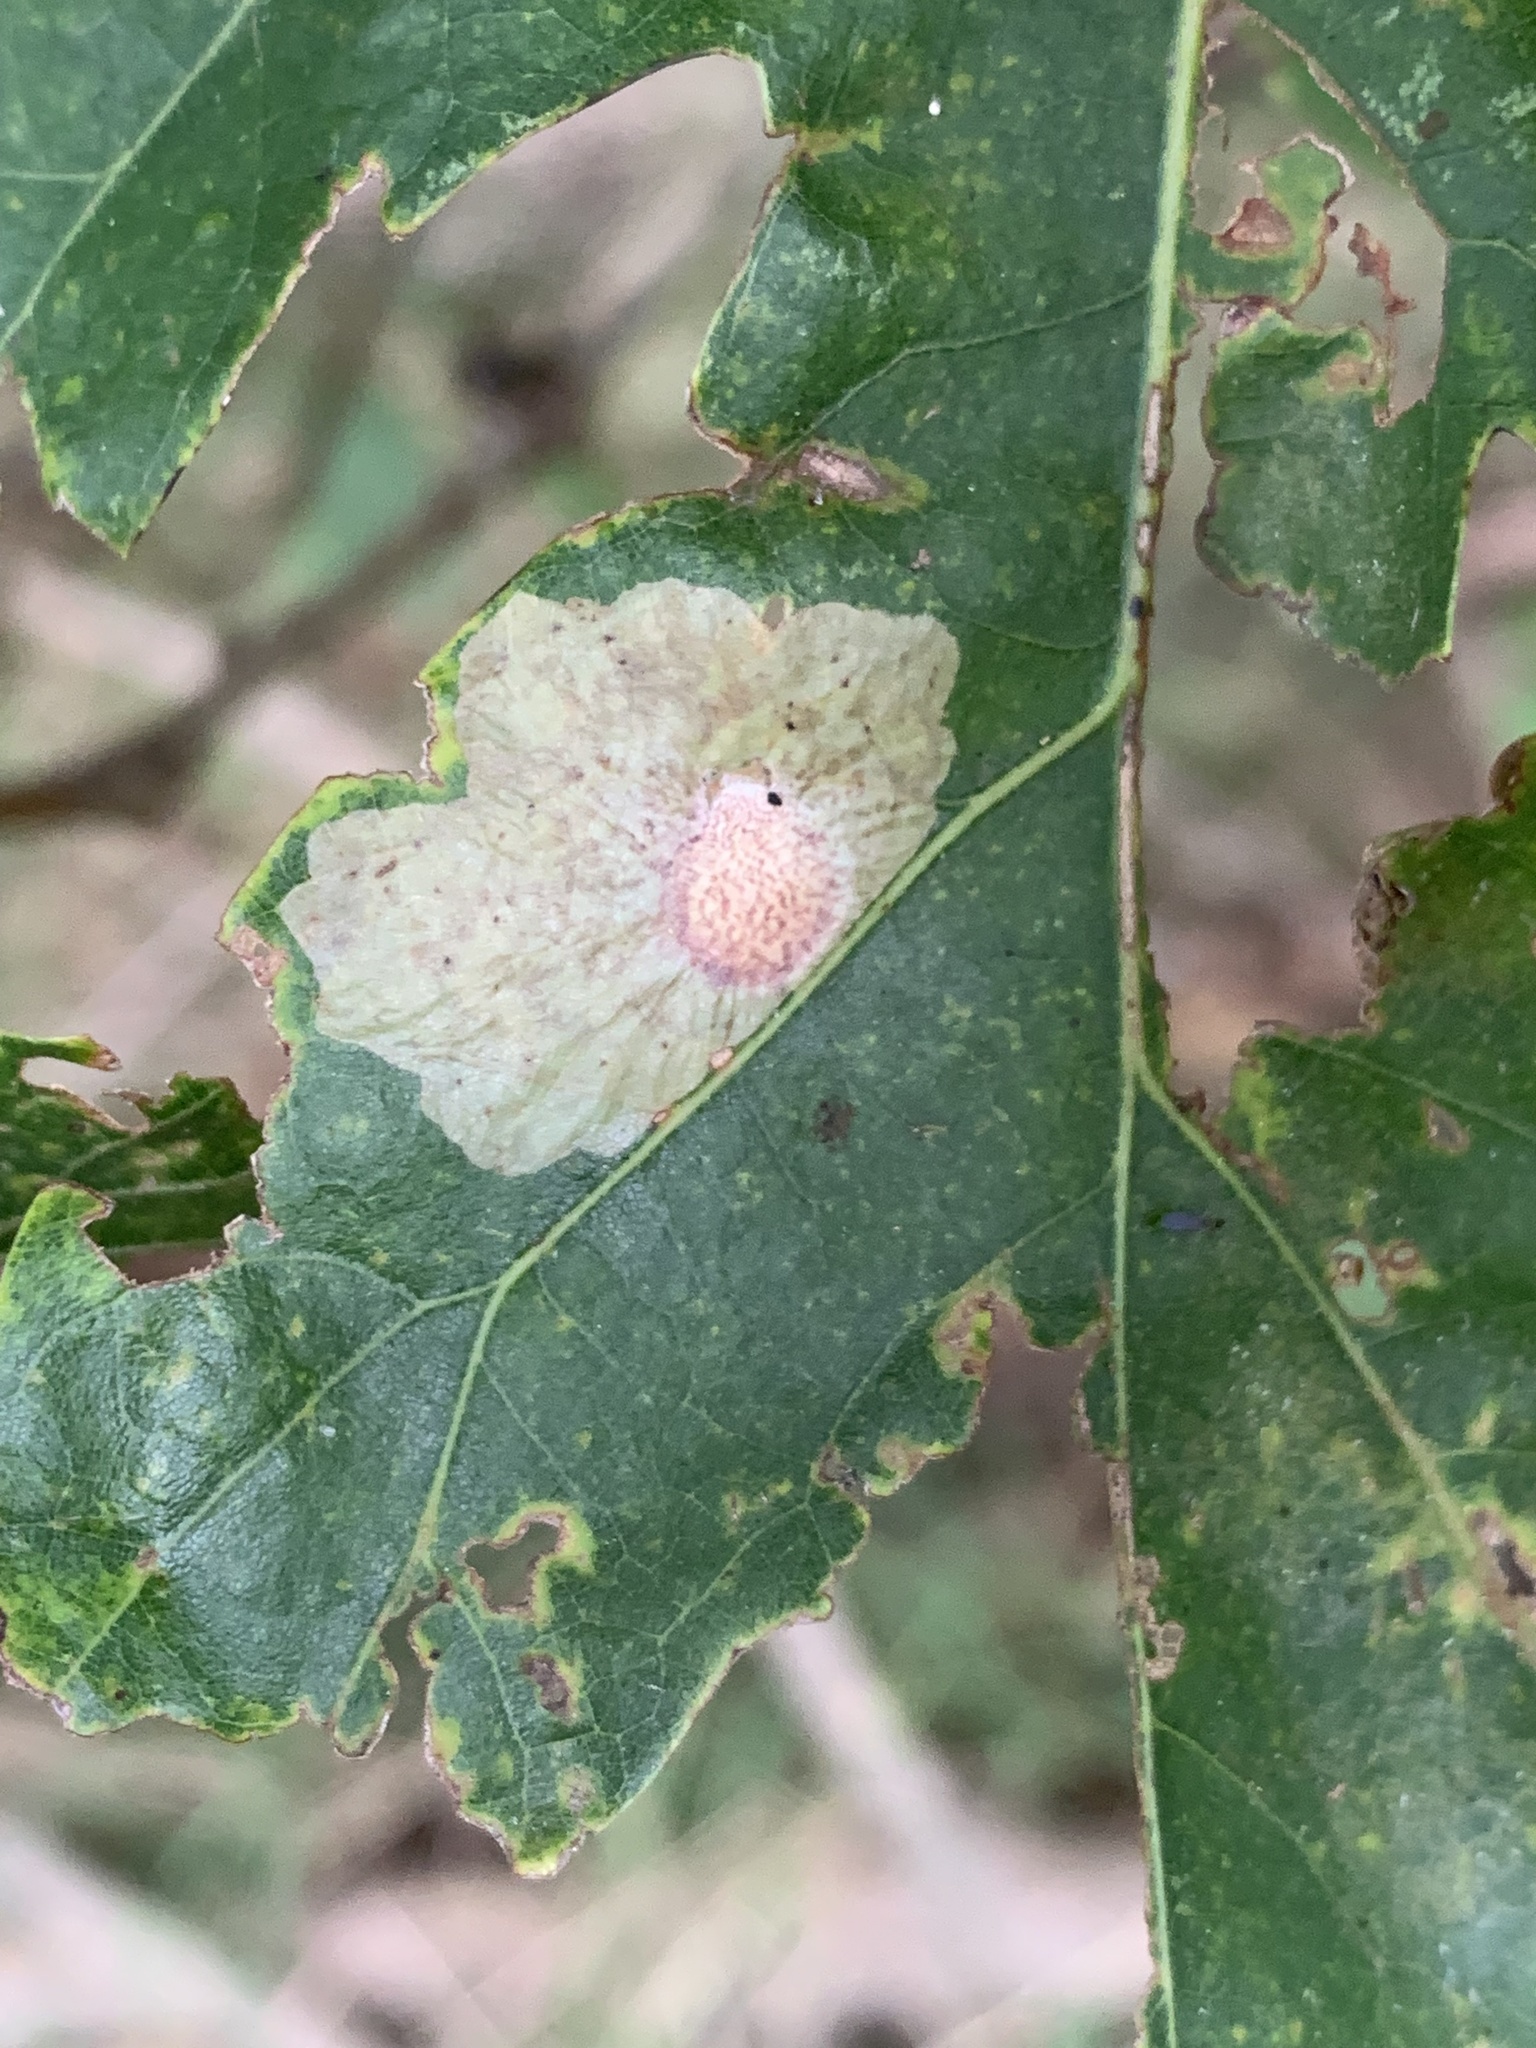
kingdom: Animalia
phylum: Arthropoda
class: Insecta
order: Lepidoptera
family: Tischeriidae
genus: Tischeria
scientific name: Tischeria quercitella
